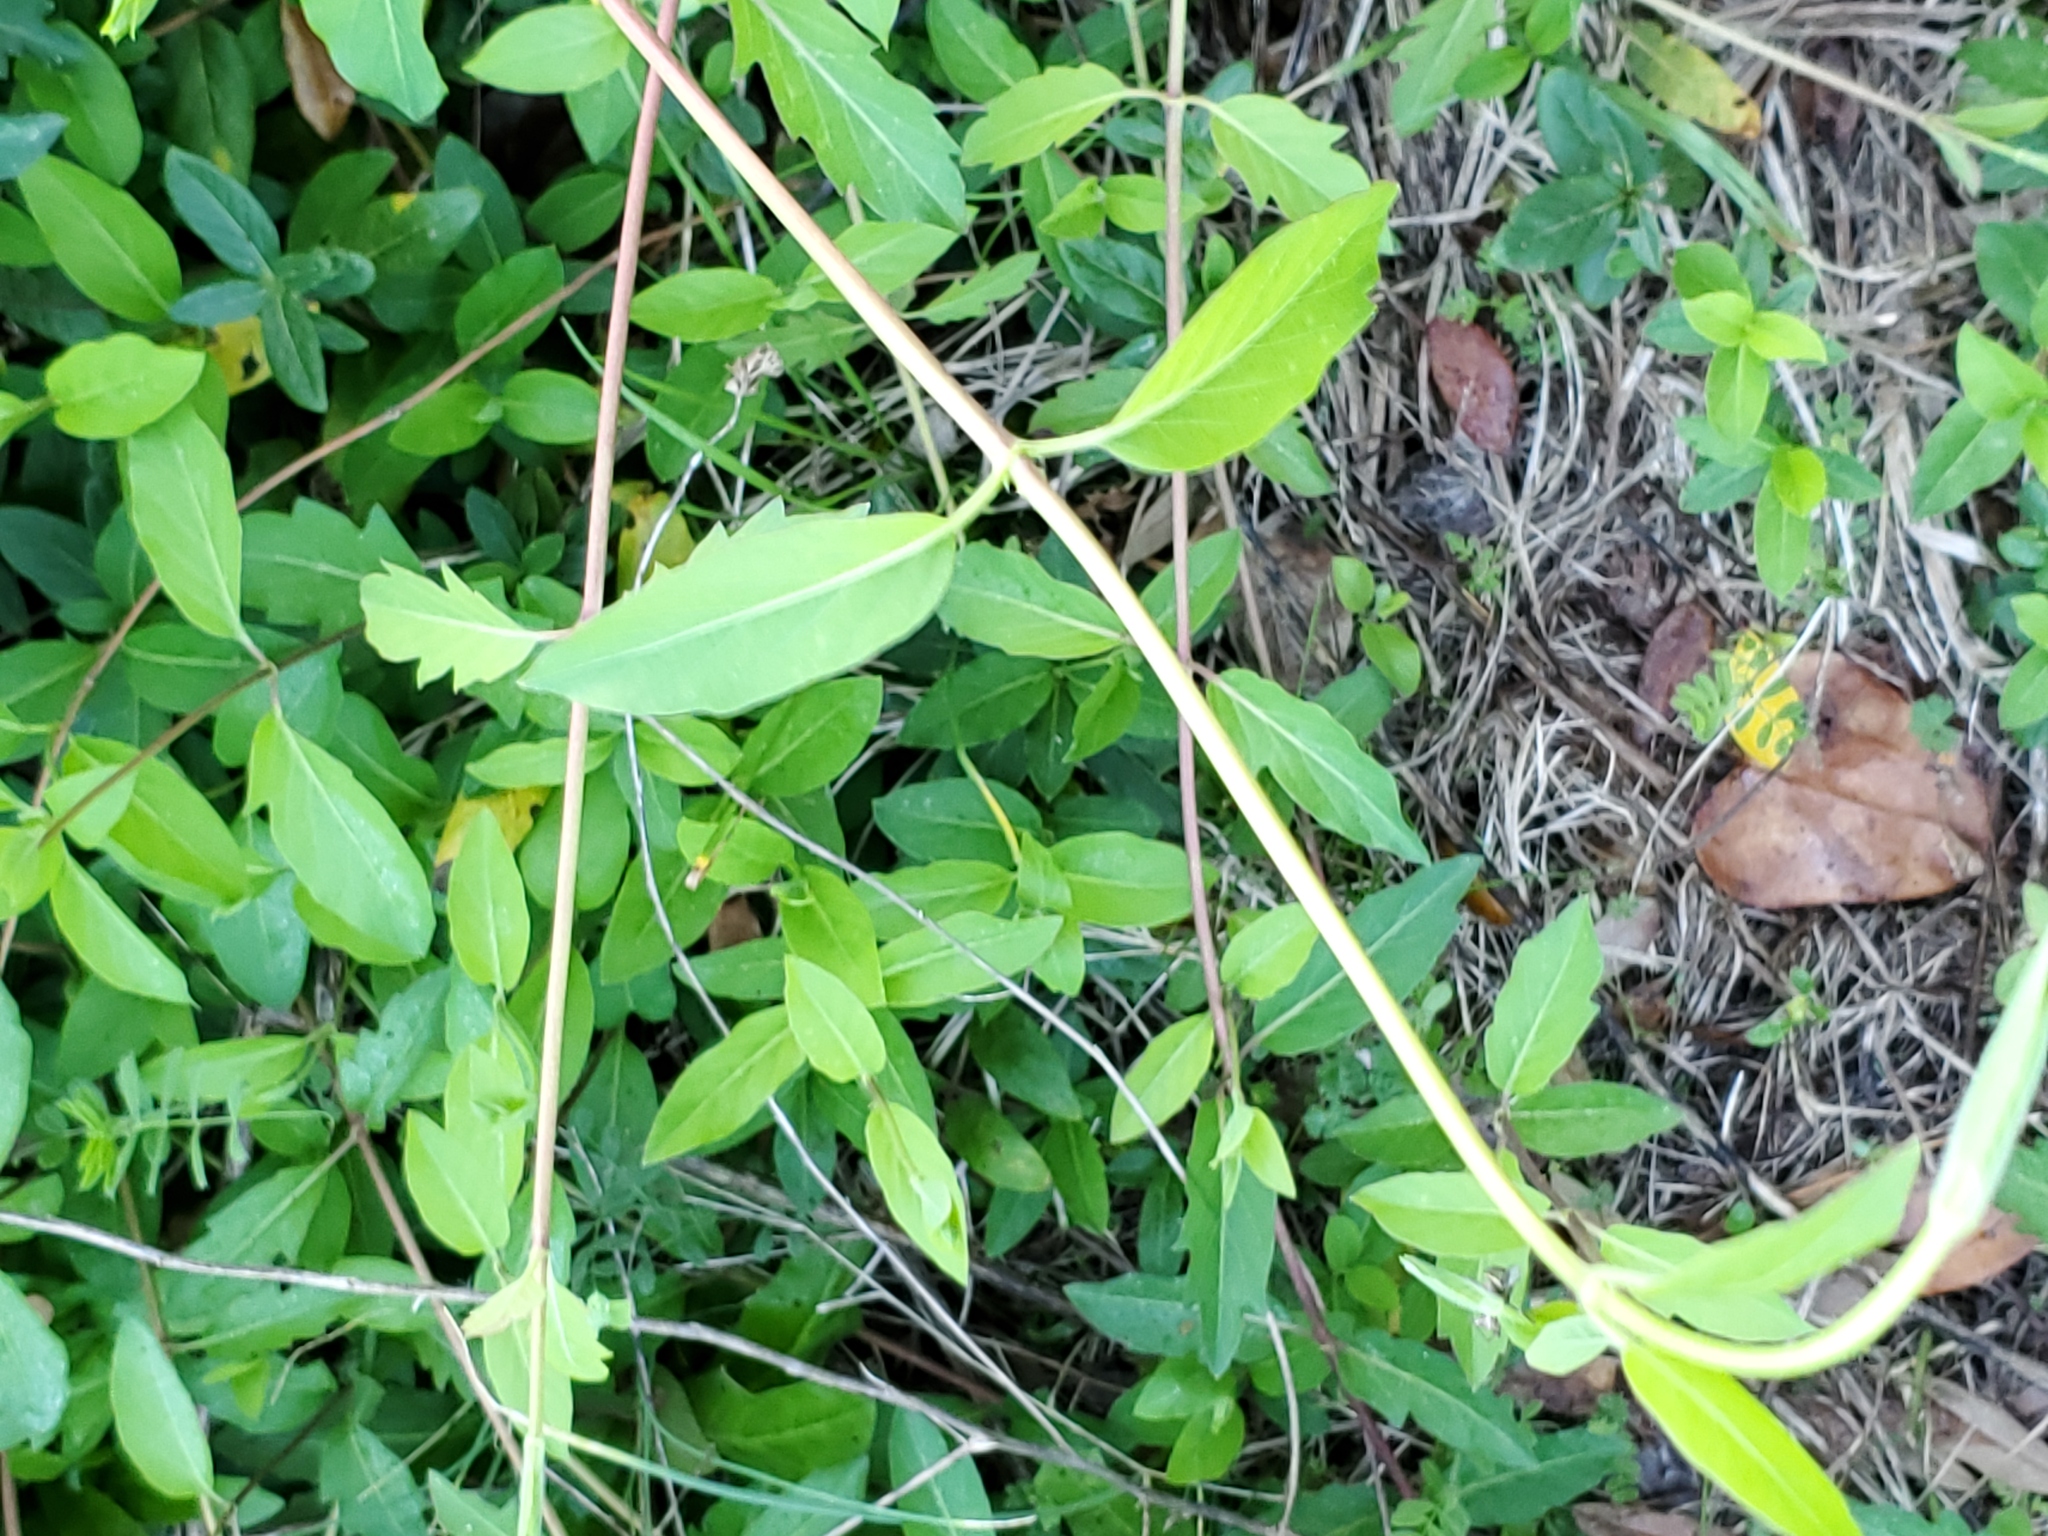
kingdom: Plantae
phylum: Tracheophyta
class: Magnoliopsida
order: Dipsacales
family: Caprifoliaceae
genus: Lonicera
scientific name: Lonicera japonica
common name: Japanese honeysuckle
